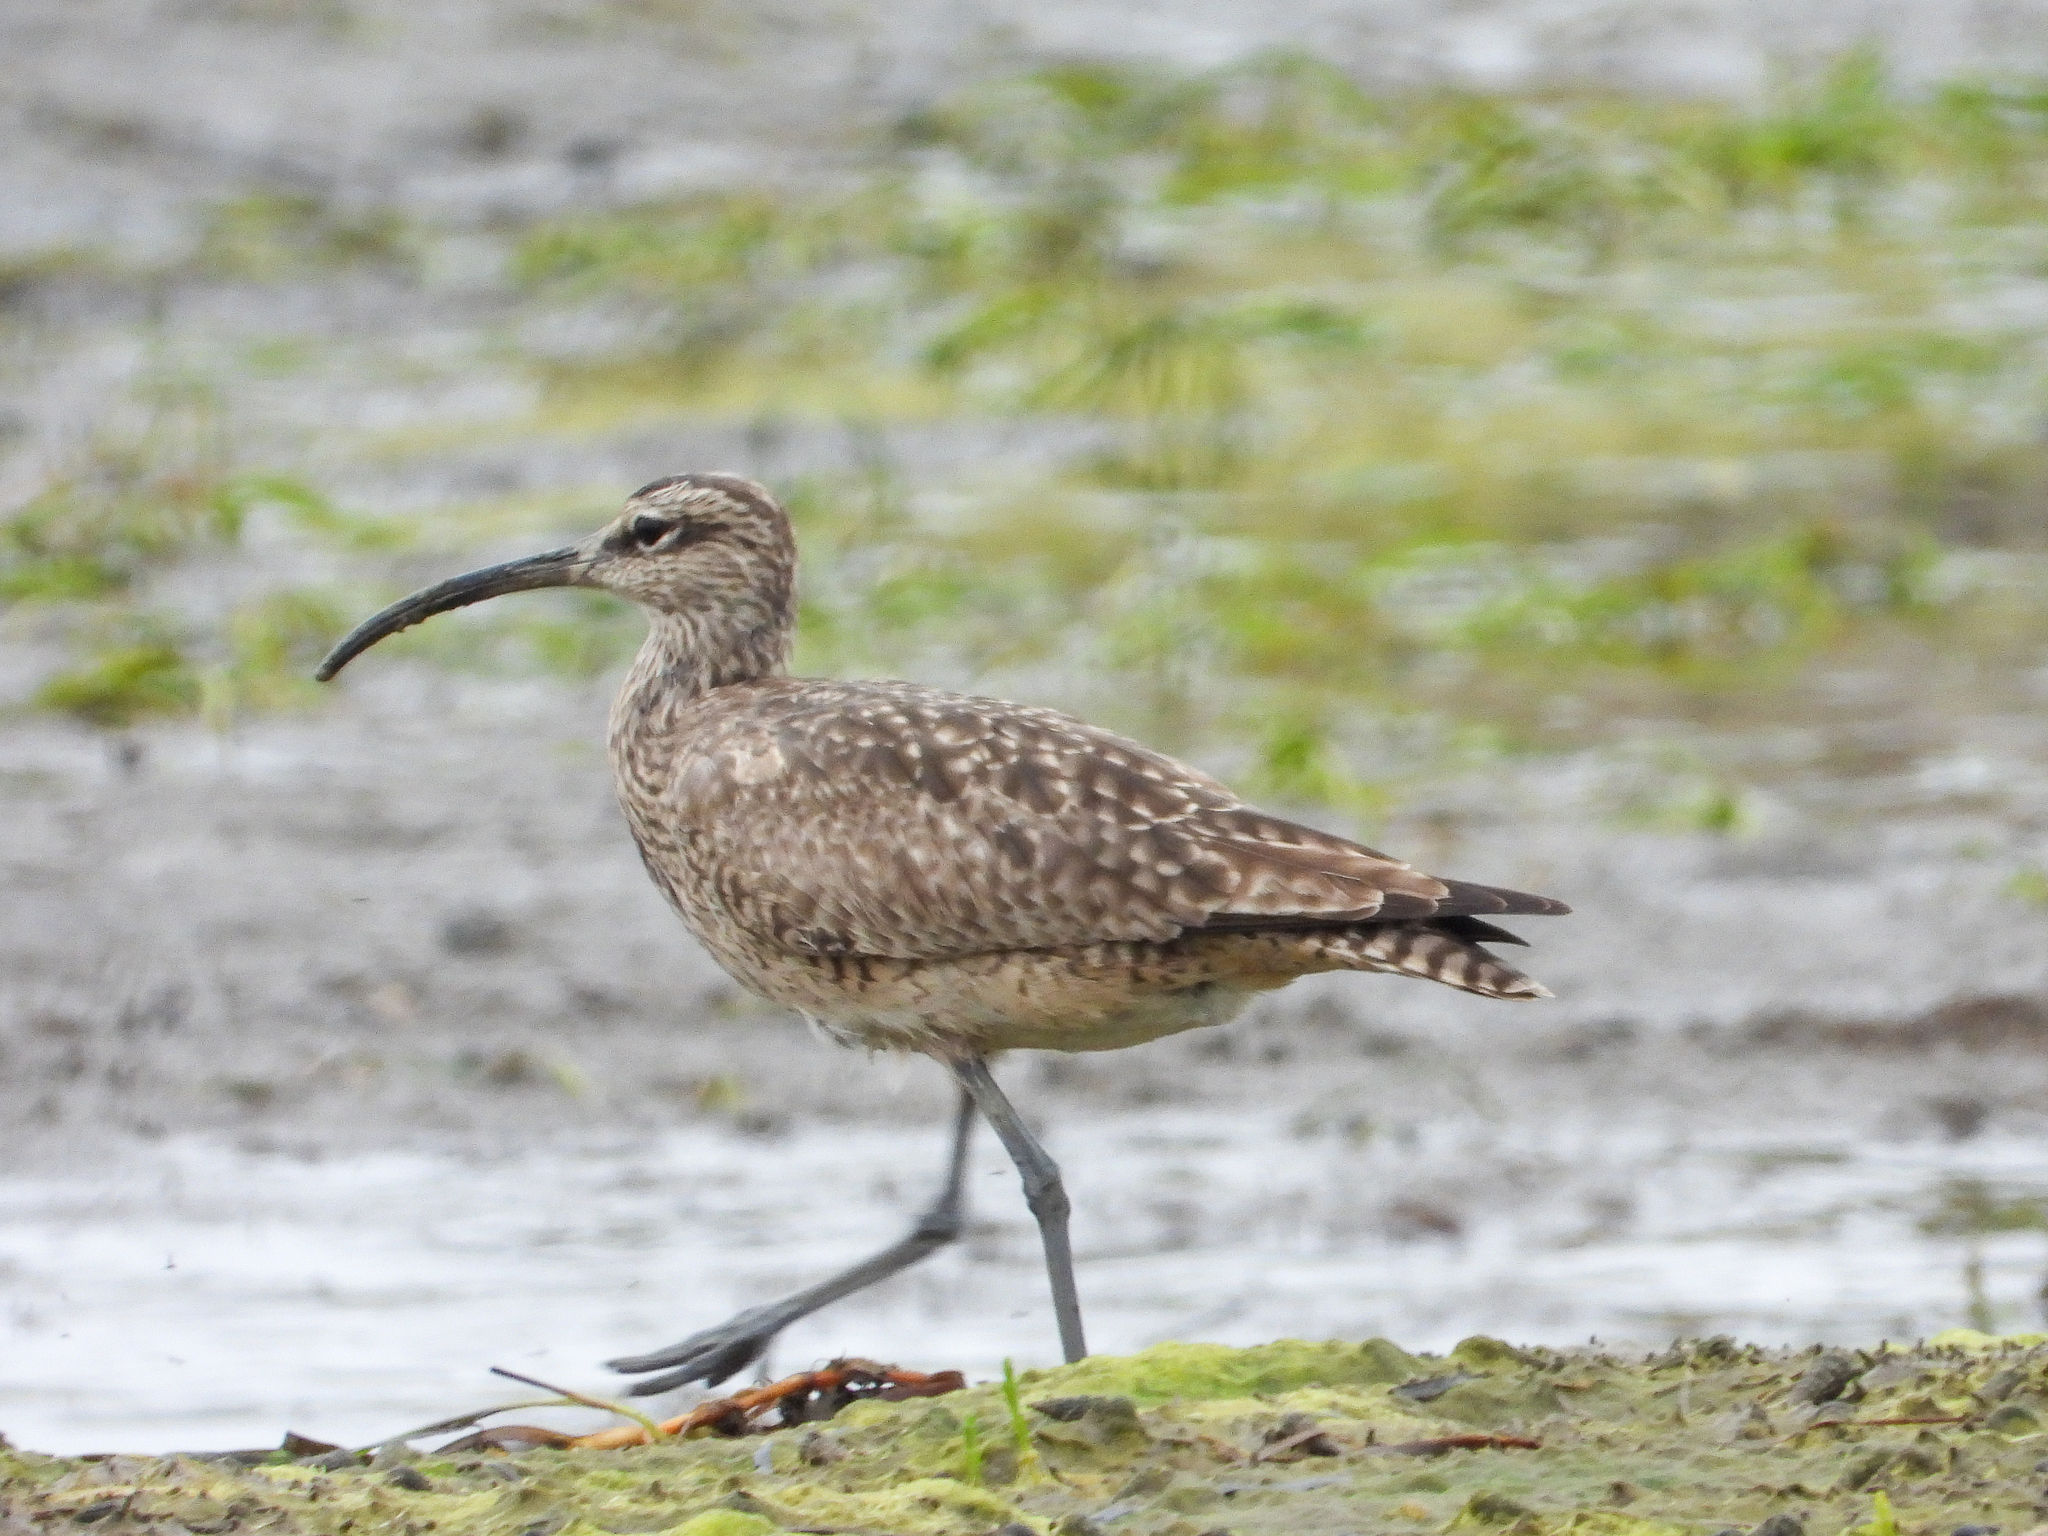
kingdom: Animalia
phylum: Chordata
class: Aves
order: Charadriiformes
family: Scolopacidae
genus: Numenius
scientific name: Numenius phaeopus
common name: Whimbrel
